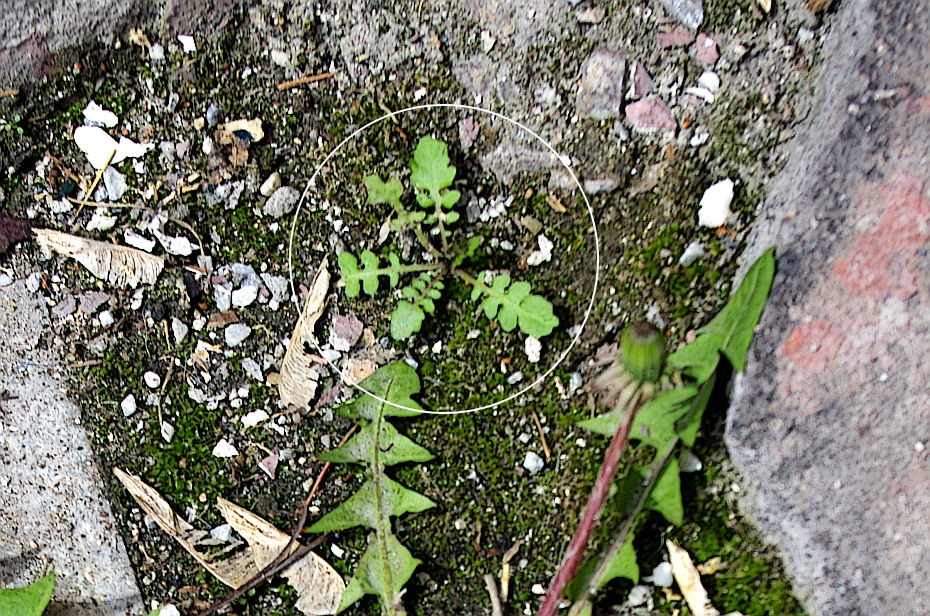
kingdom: Plantae
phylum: Tracheophyta
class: Magnoliopsida
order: Brassicales
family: Brassicaceae
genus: Rorippa
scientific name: Rorippa palustris
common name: Marsh yellow-cress
